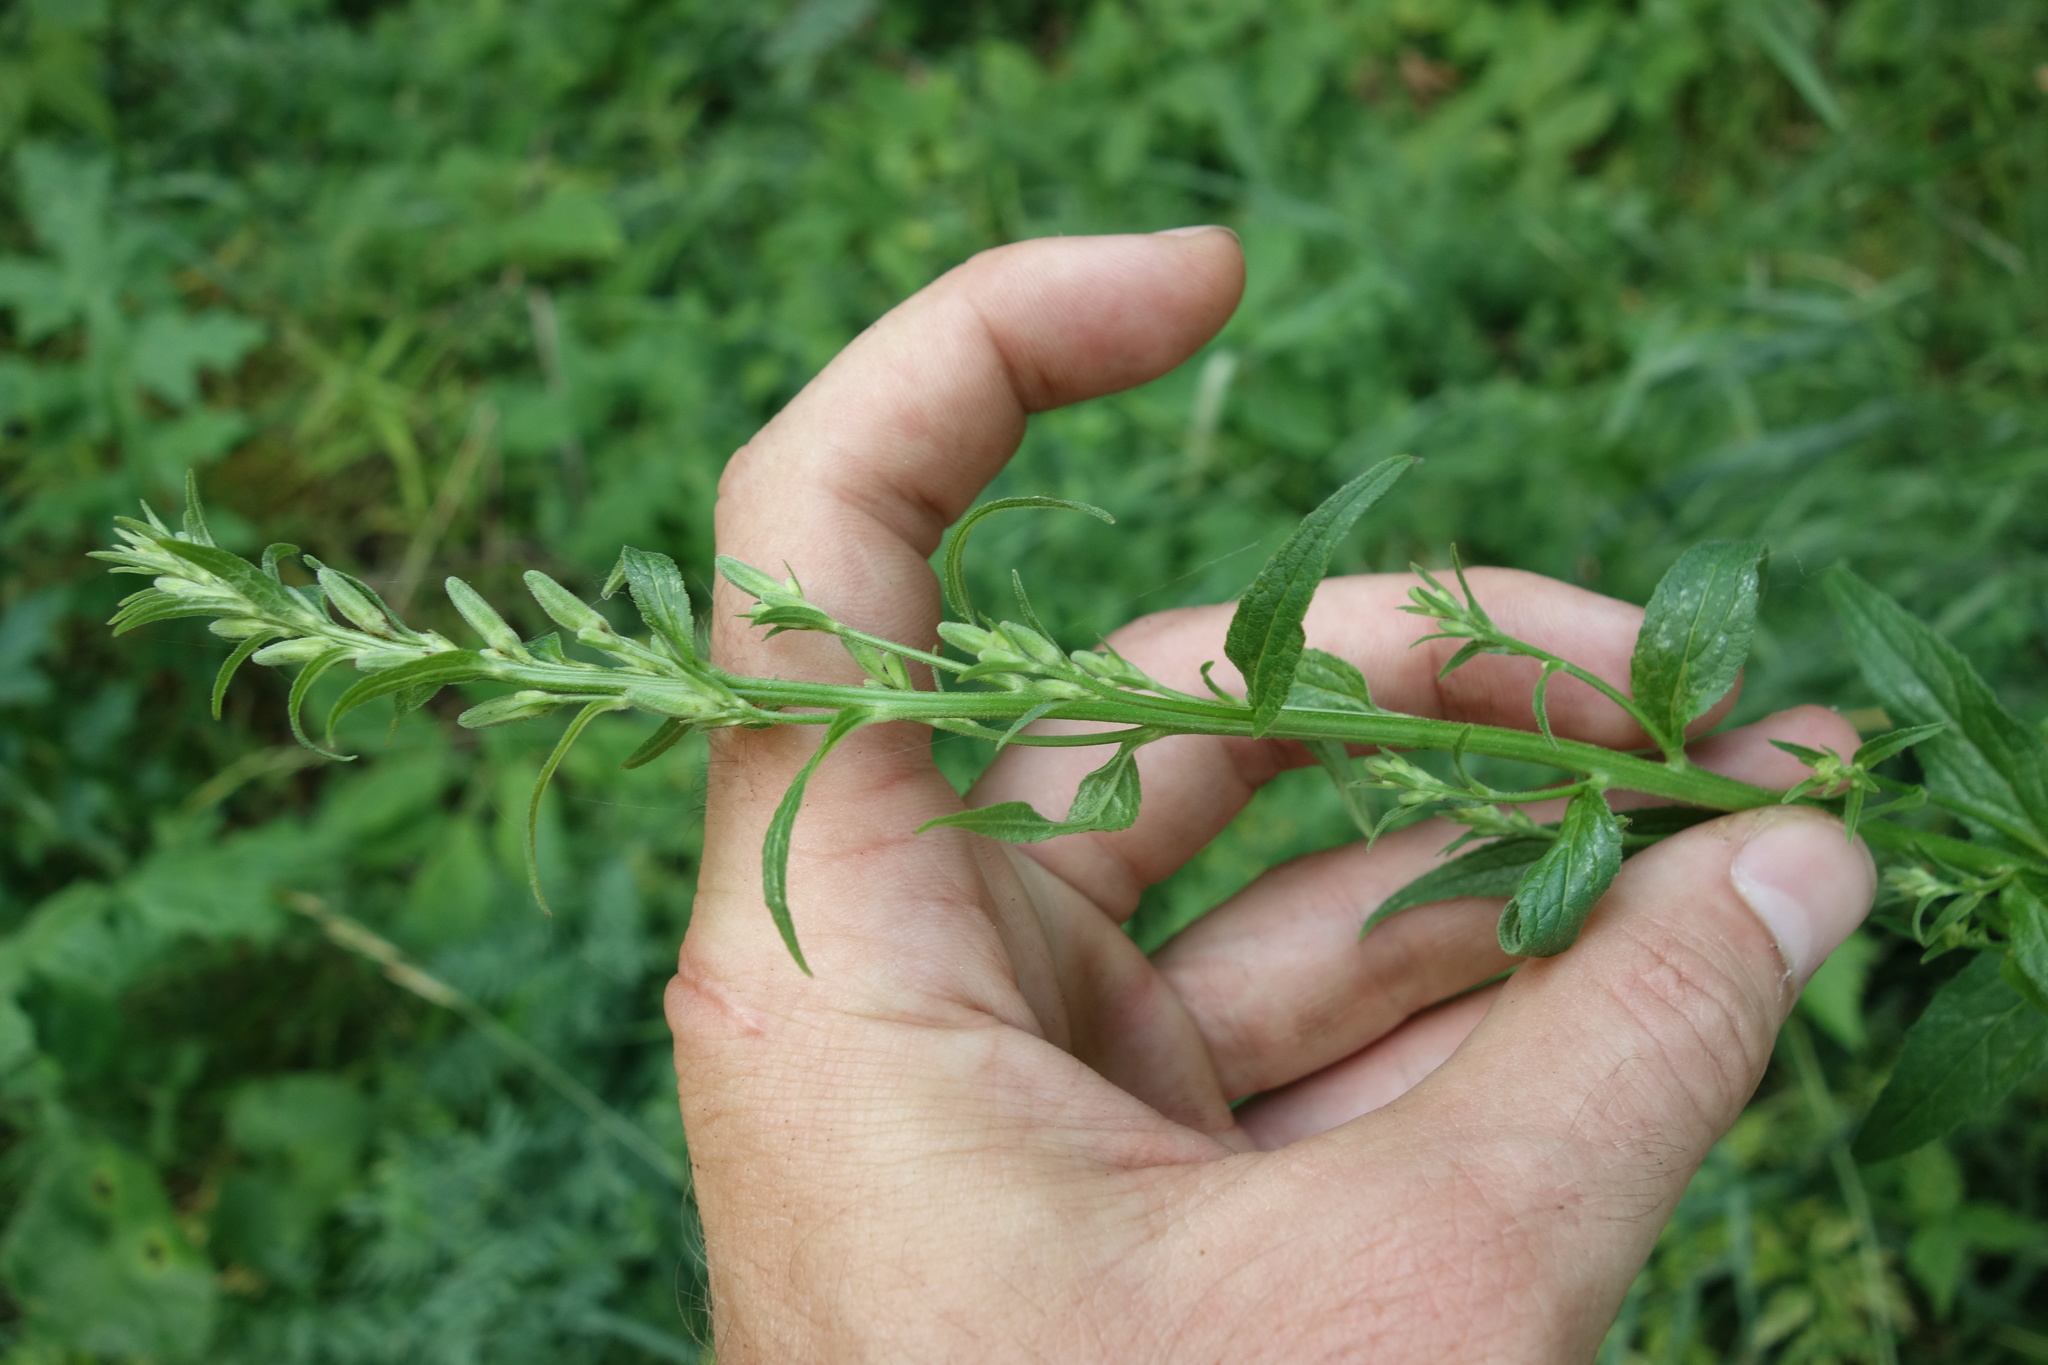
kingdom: Plantae
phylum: Tracheophyta
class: Magnoliopsida
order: Asterales
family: Campanulaceae
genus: Adenophora
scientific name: Adenophora liliifolia
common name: Lilyleaf ladybells
